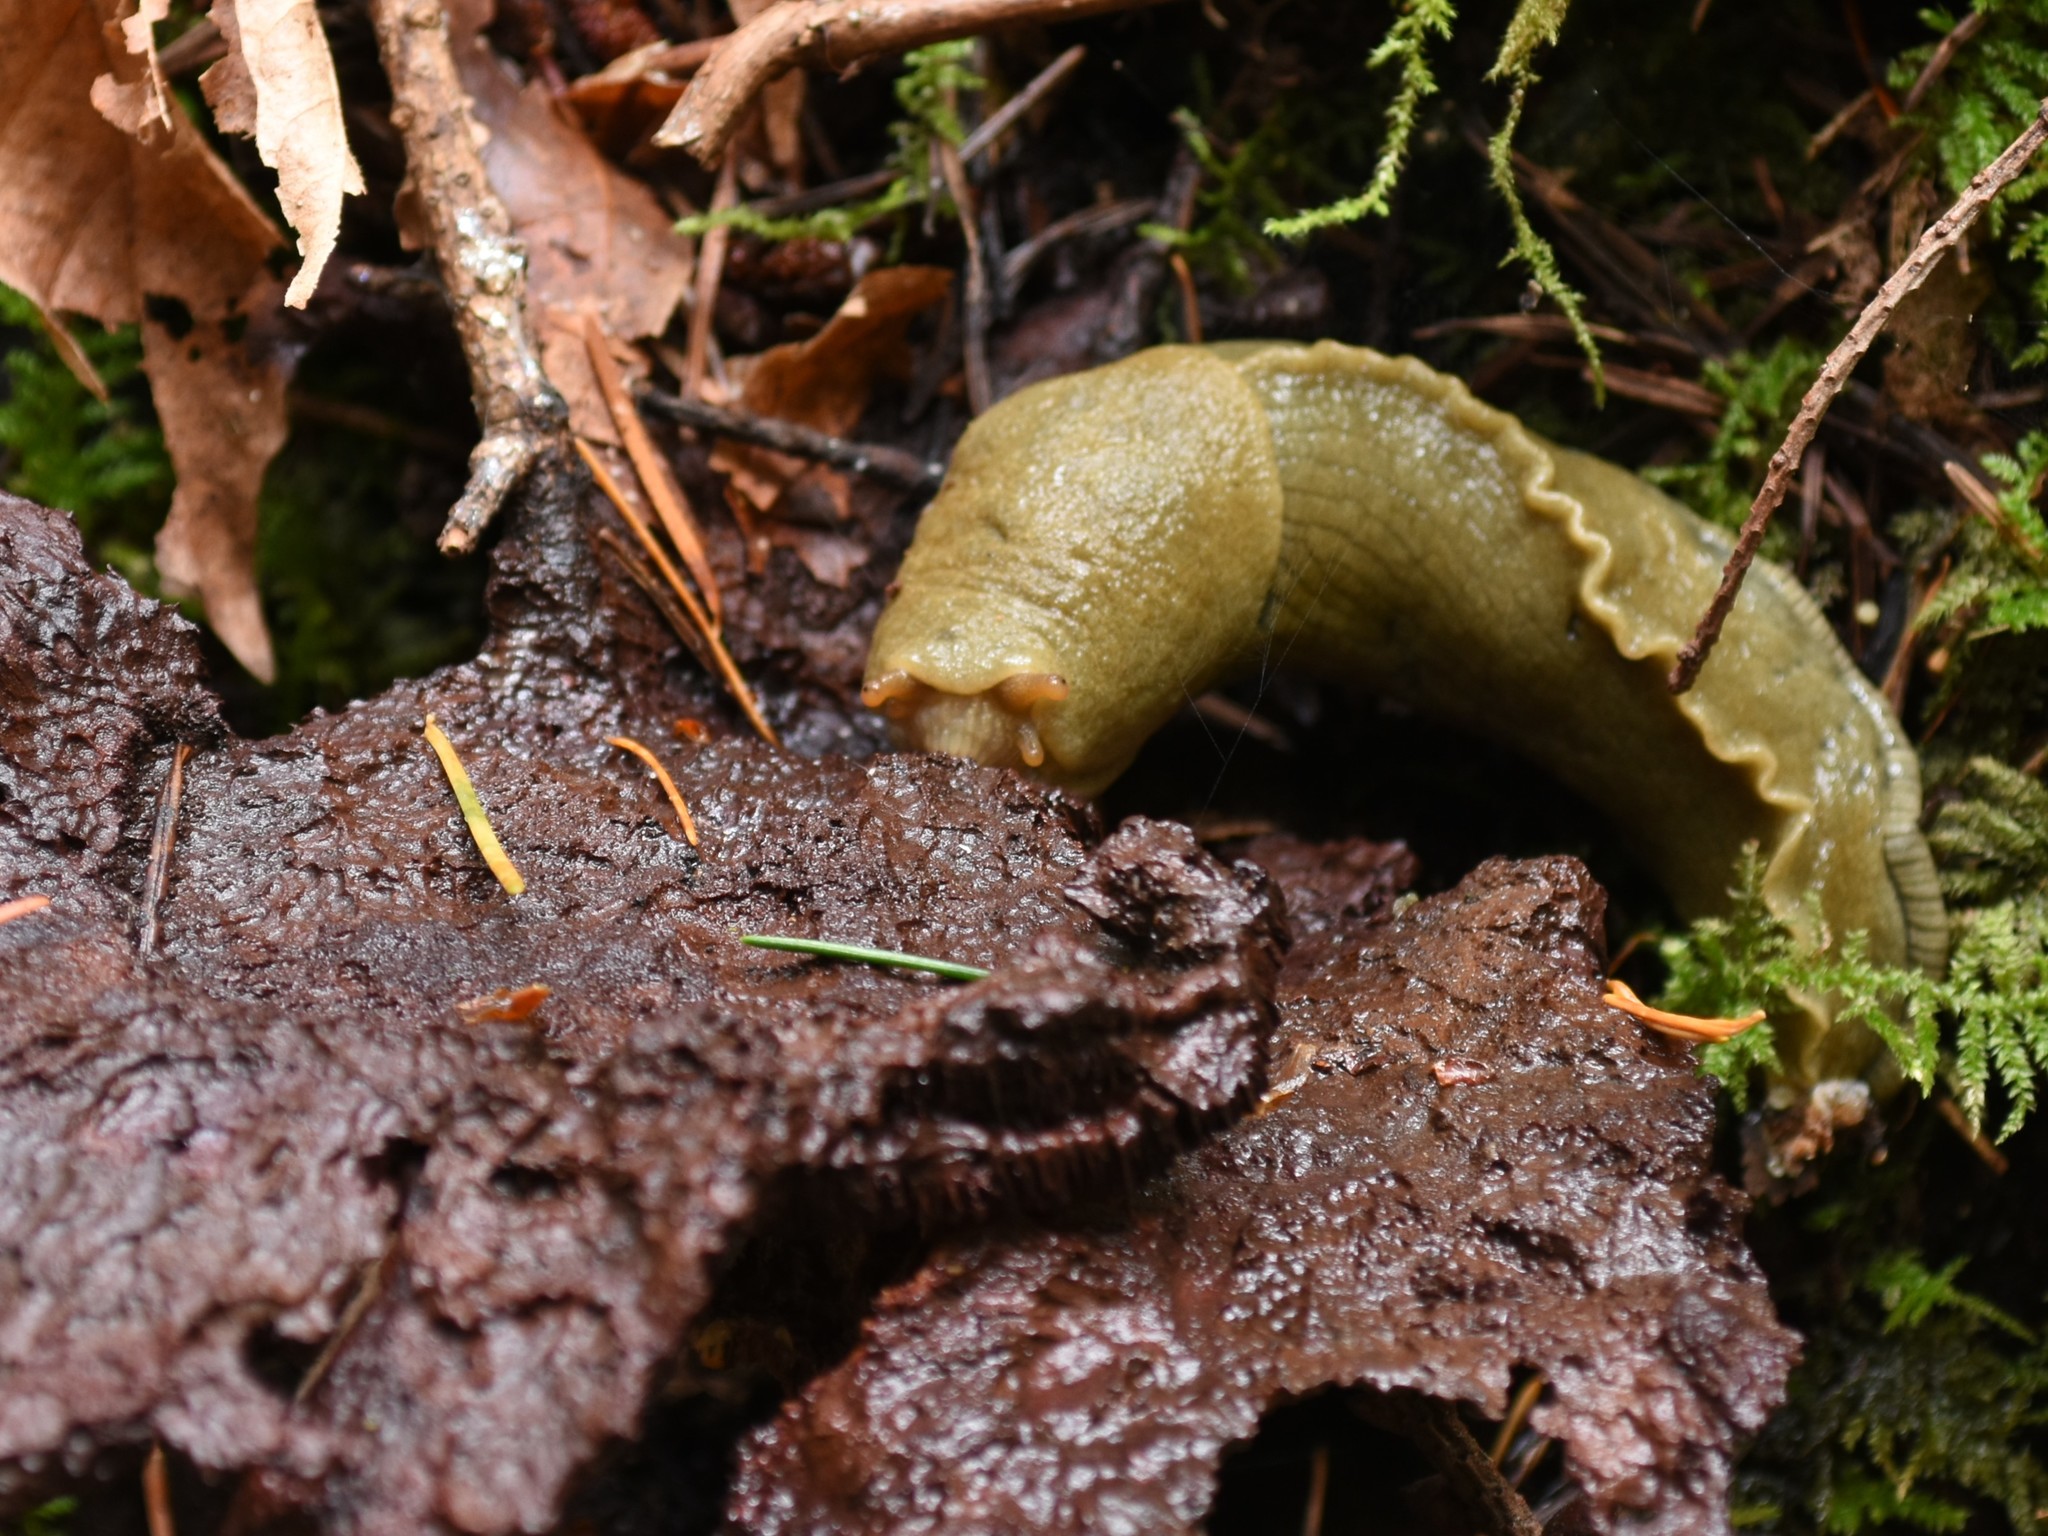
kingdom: Animalia
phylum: Mollusca
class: Gastropoda
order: Stylommatophora
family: Ariolimacidae
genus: Ariolimax
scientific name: Ariolimax columbianus
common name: Pacific banana slug
